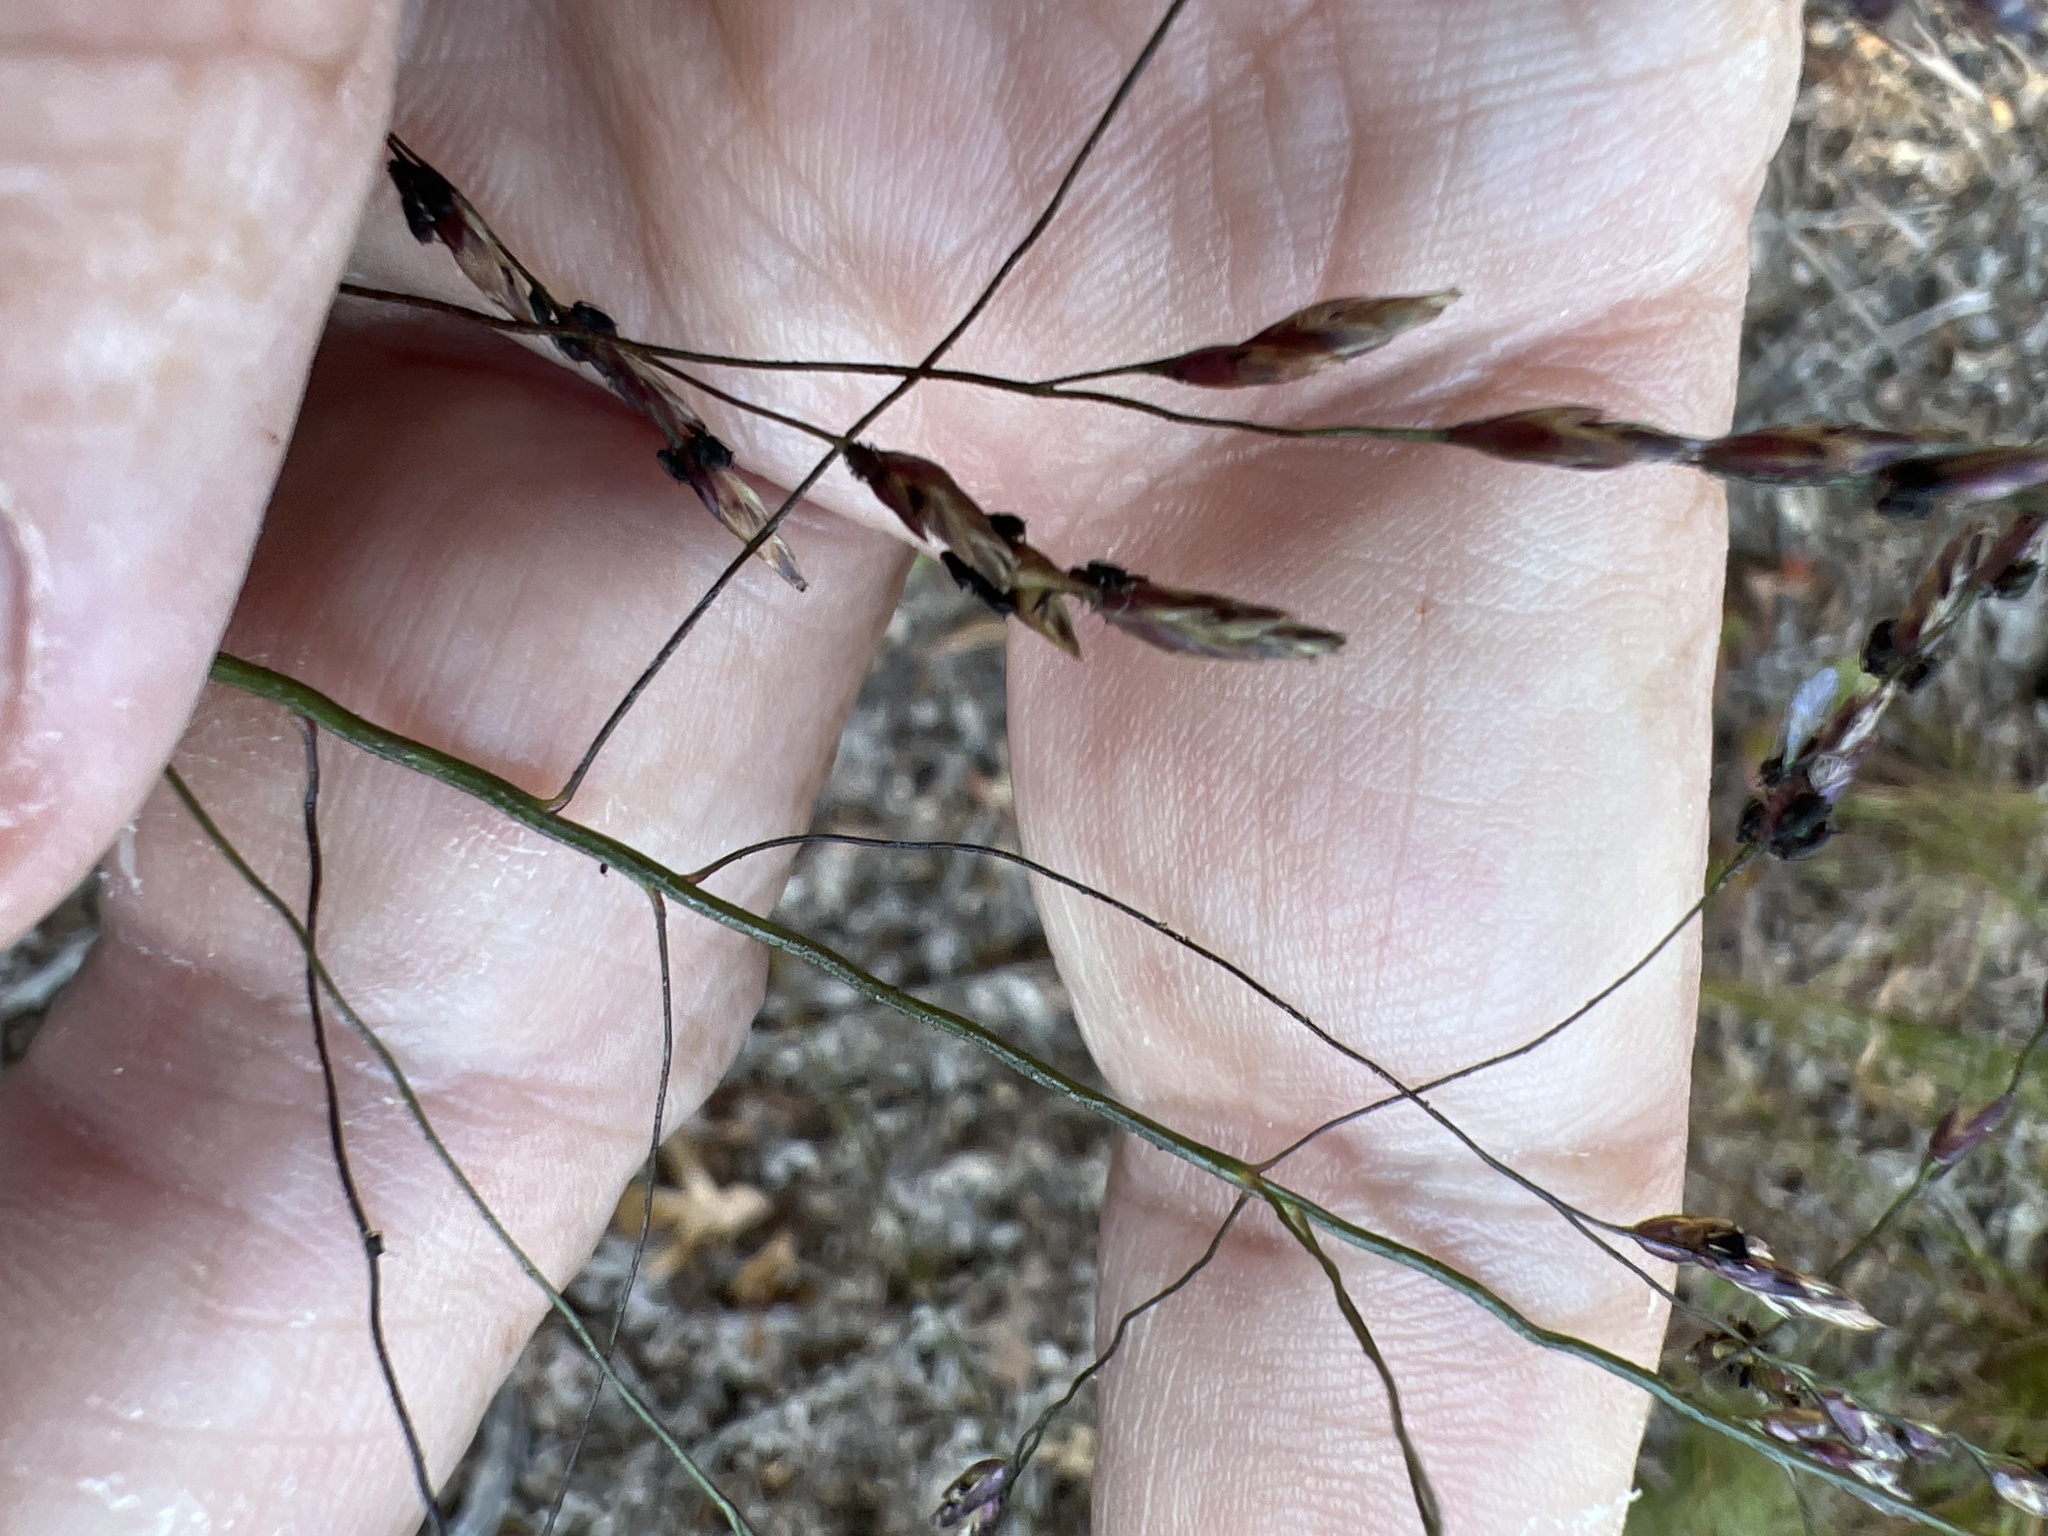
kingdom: Plantae
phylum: Tracheophyta
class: Liliopsida
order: Poales
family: Poaceae
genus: Tridens
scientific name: Tridens flavus
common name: Purpletop
